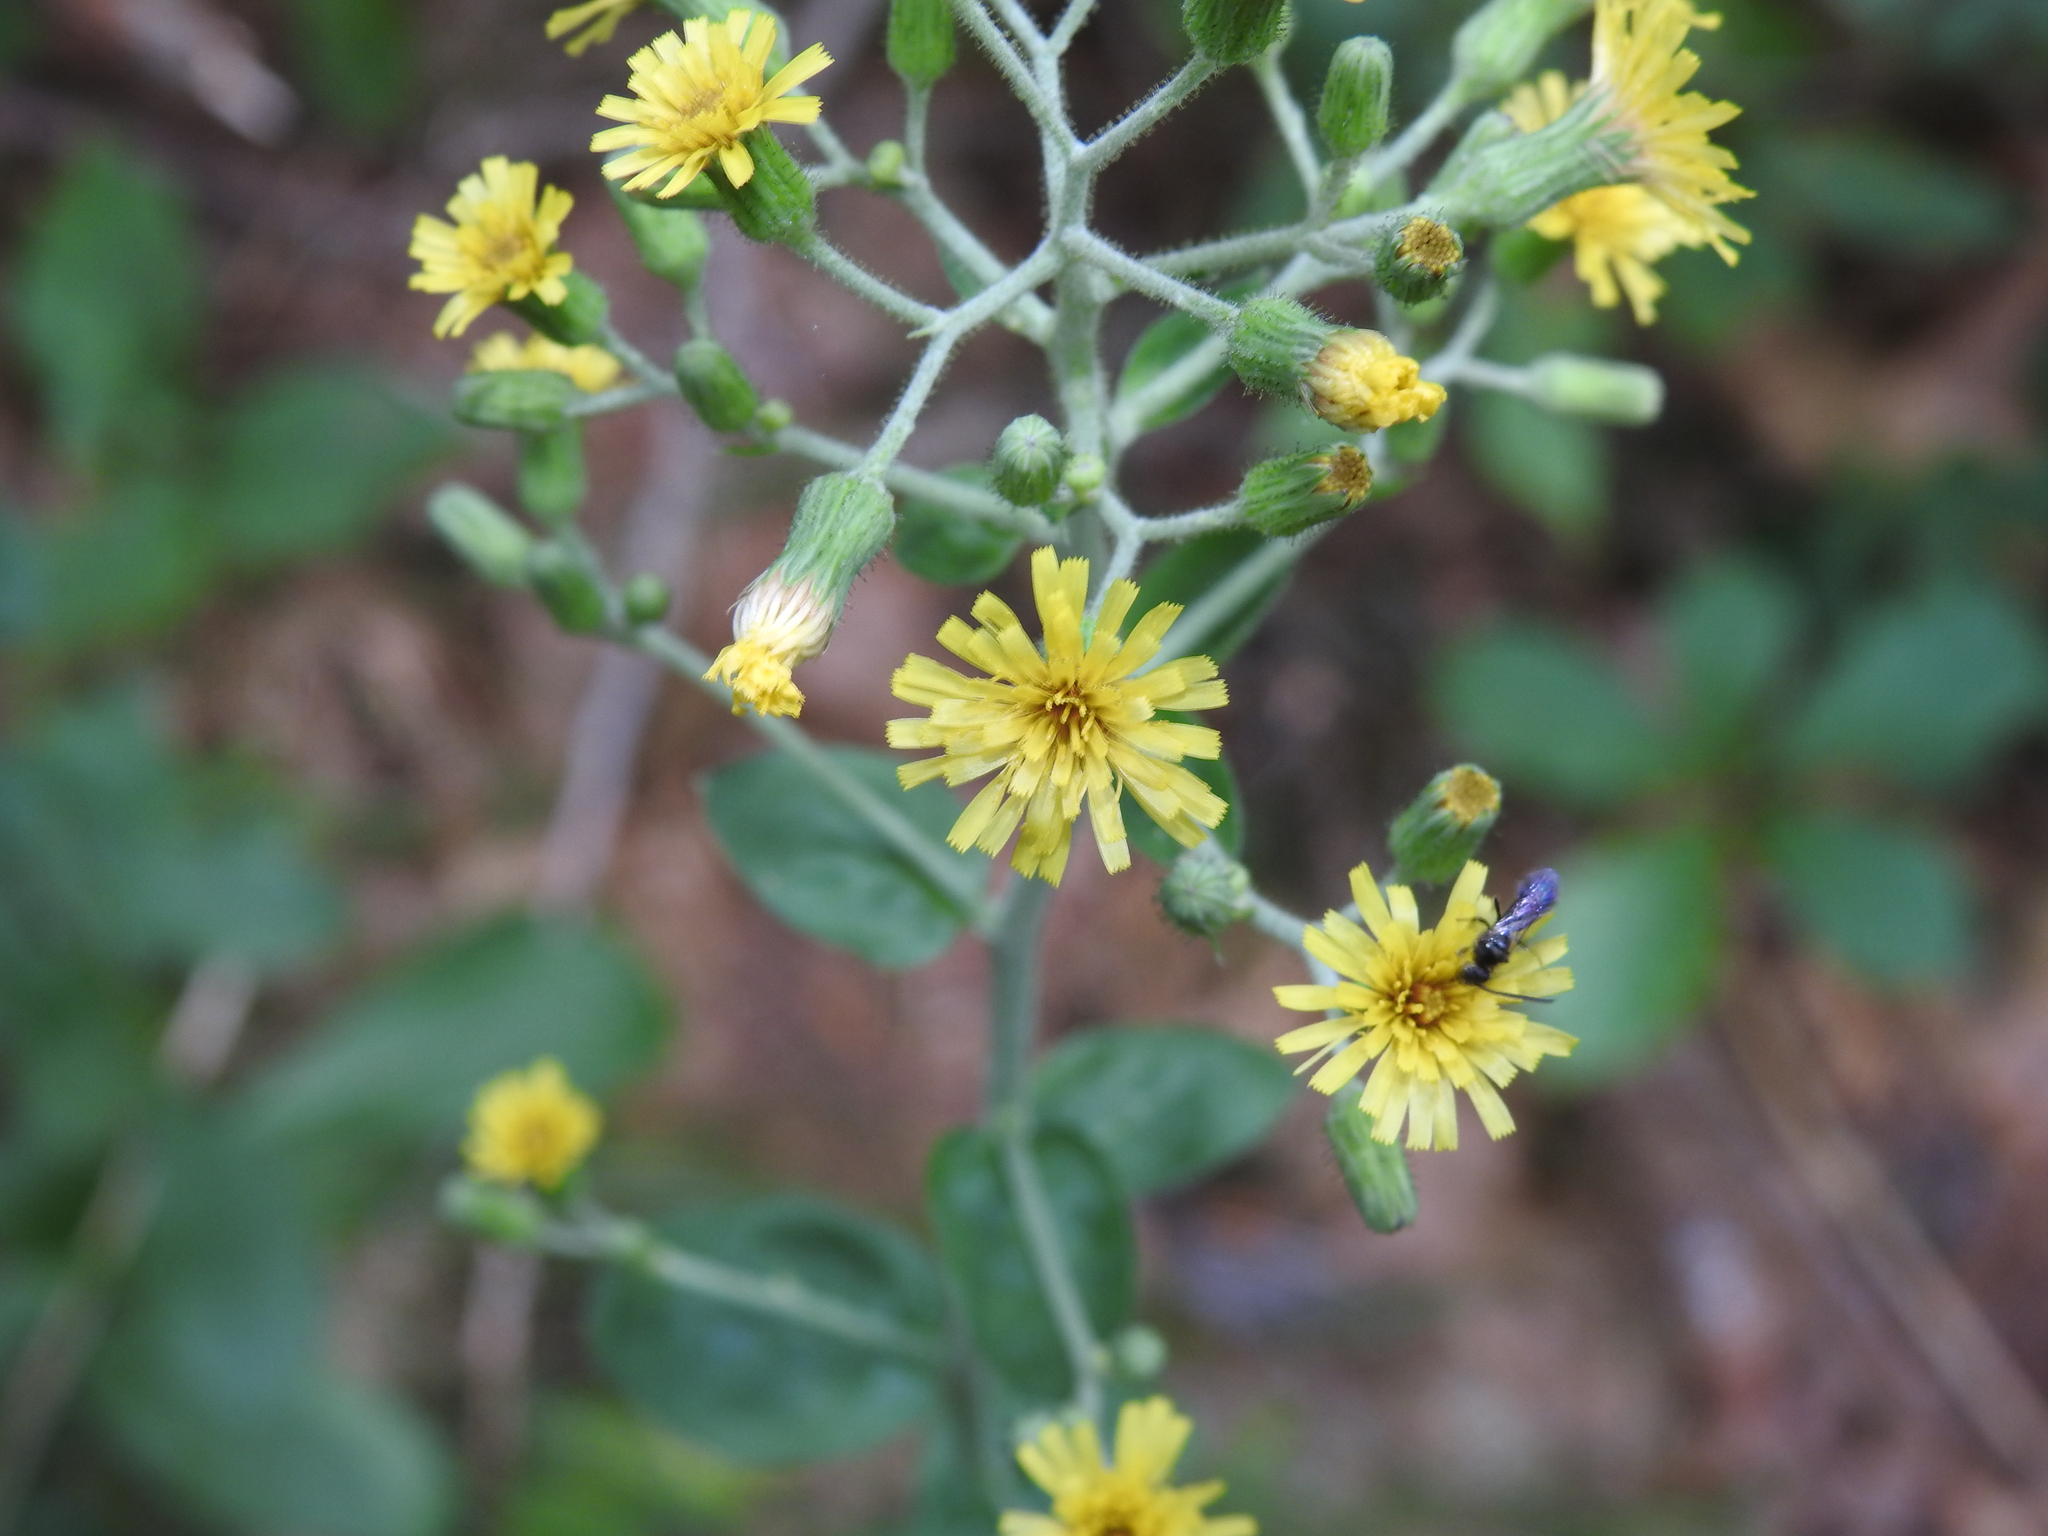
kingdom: Plantae
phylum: Tracheophyta
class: Magnoliopsida
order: Asterales
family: Asteraceae
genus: Hieracium
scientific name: Hieracium scabrum
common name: Rough hawkweed
